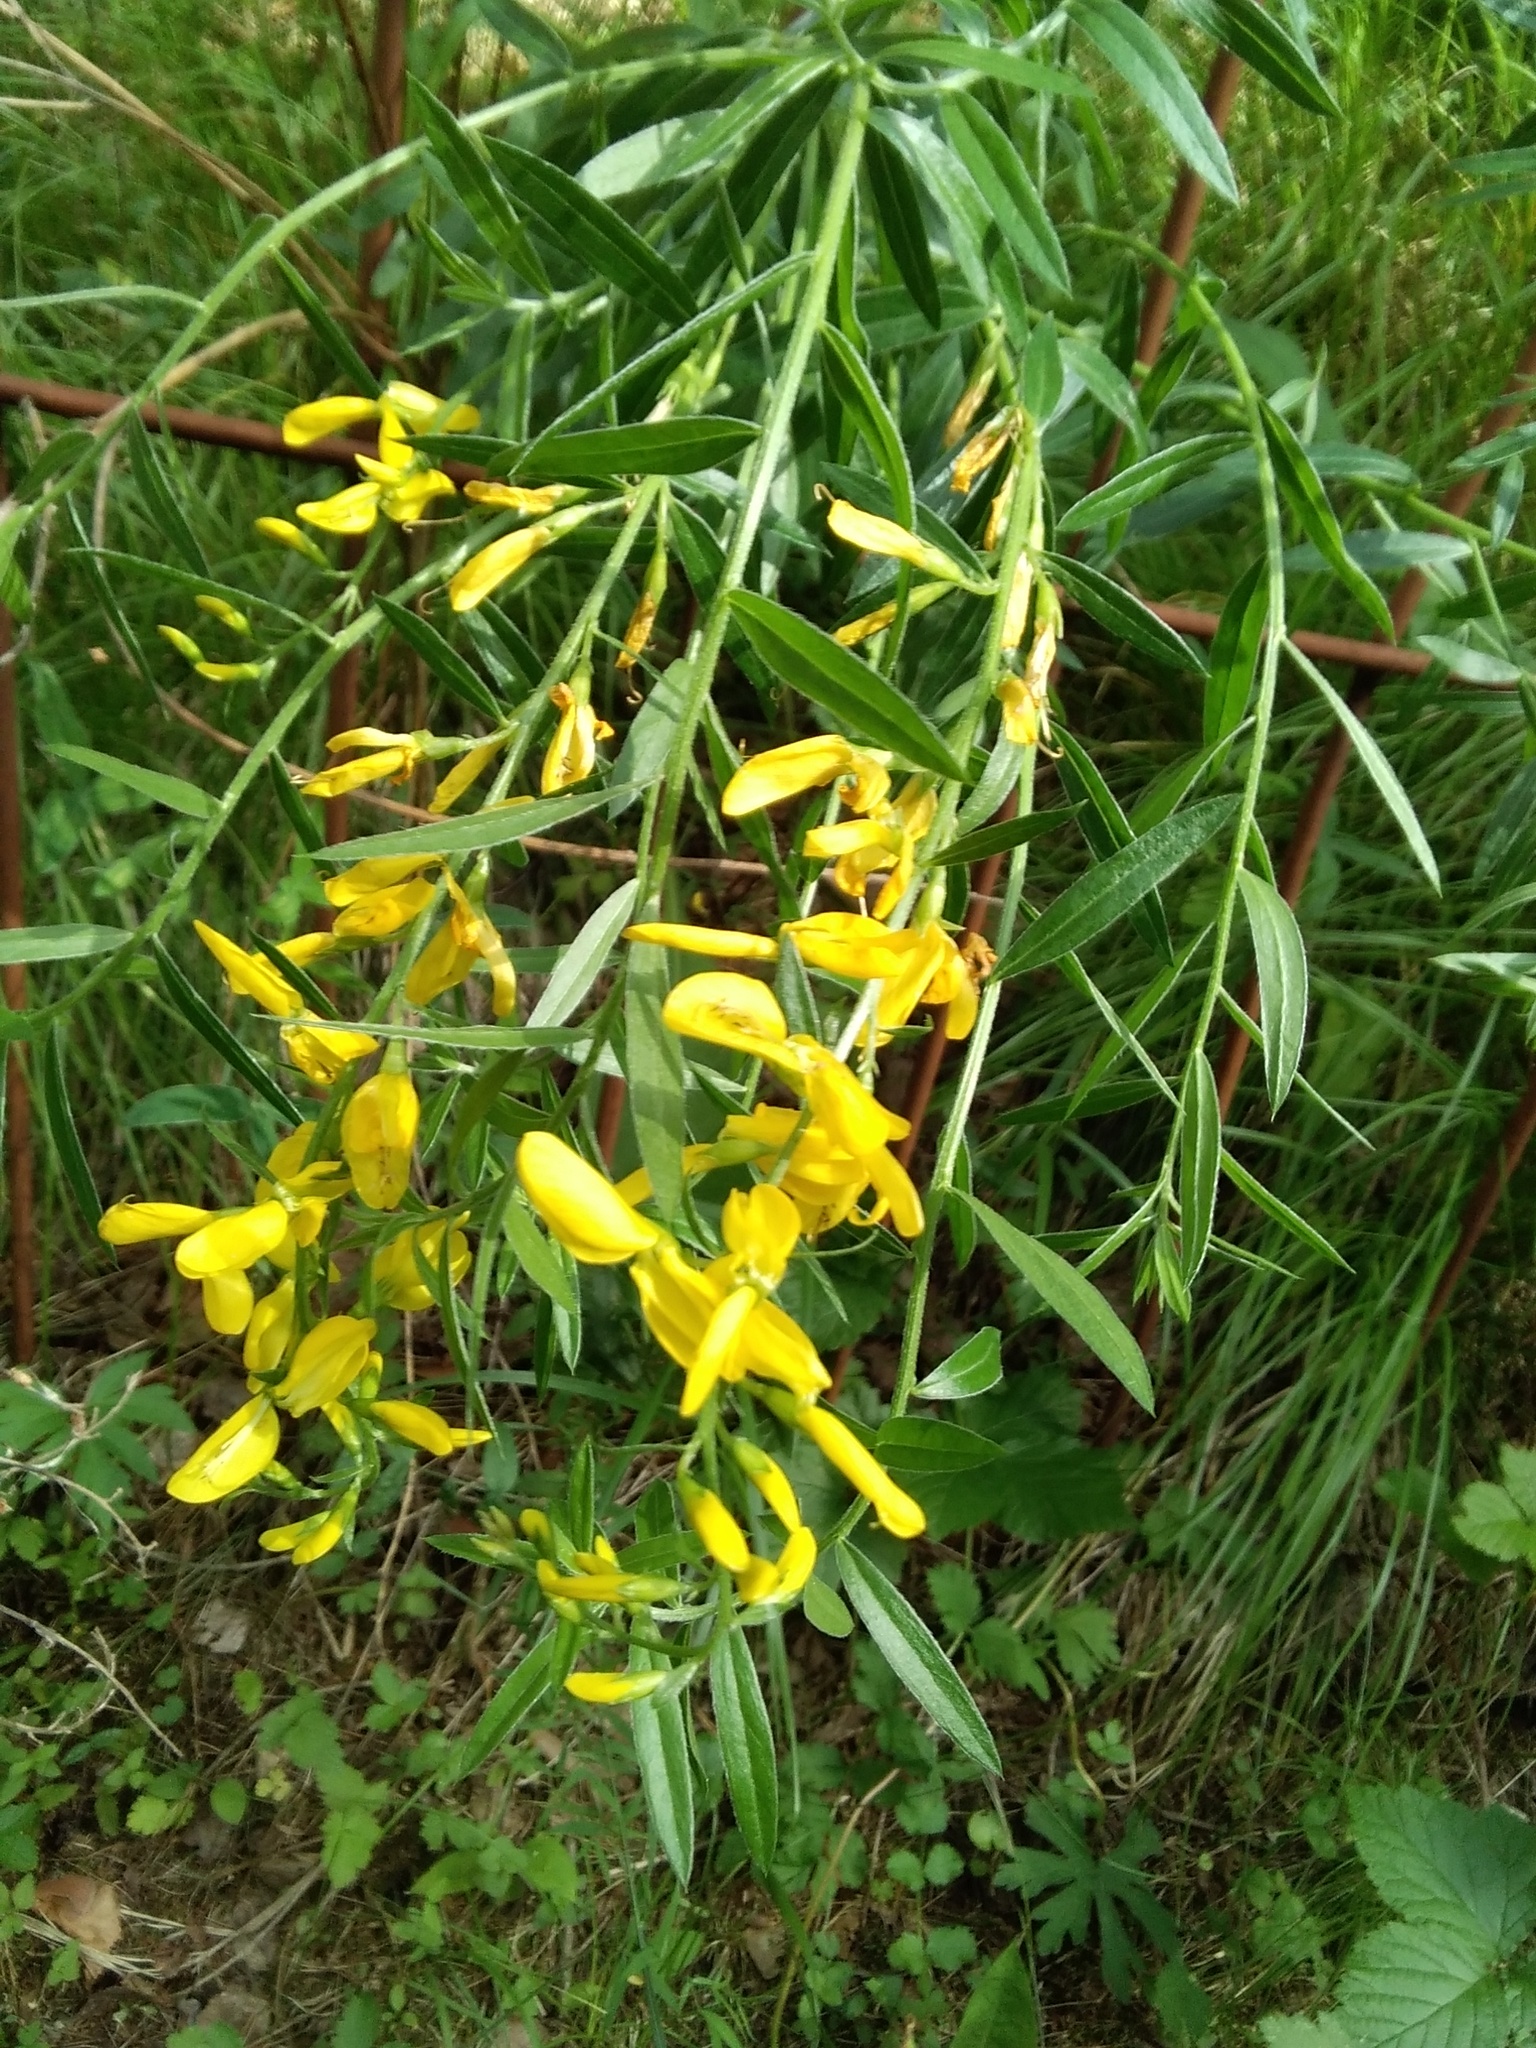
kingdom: Plantae
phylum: Tracheophyta
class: Magnoliopsida
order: Fabales
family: Fabaceae
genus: Genista
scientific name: Genista tinctoria
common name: Dyer's greenweed
